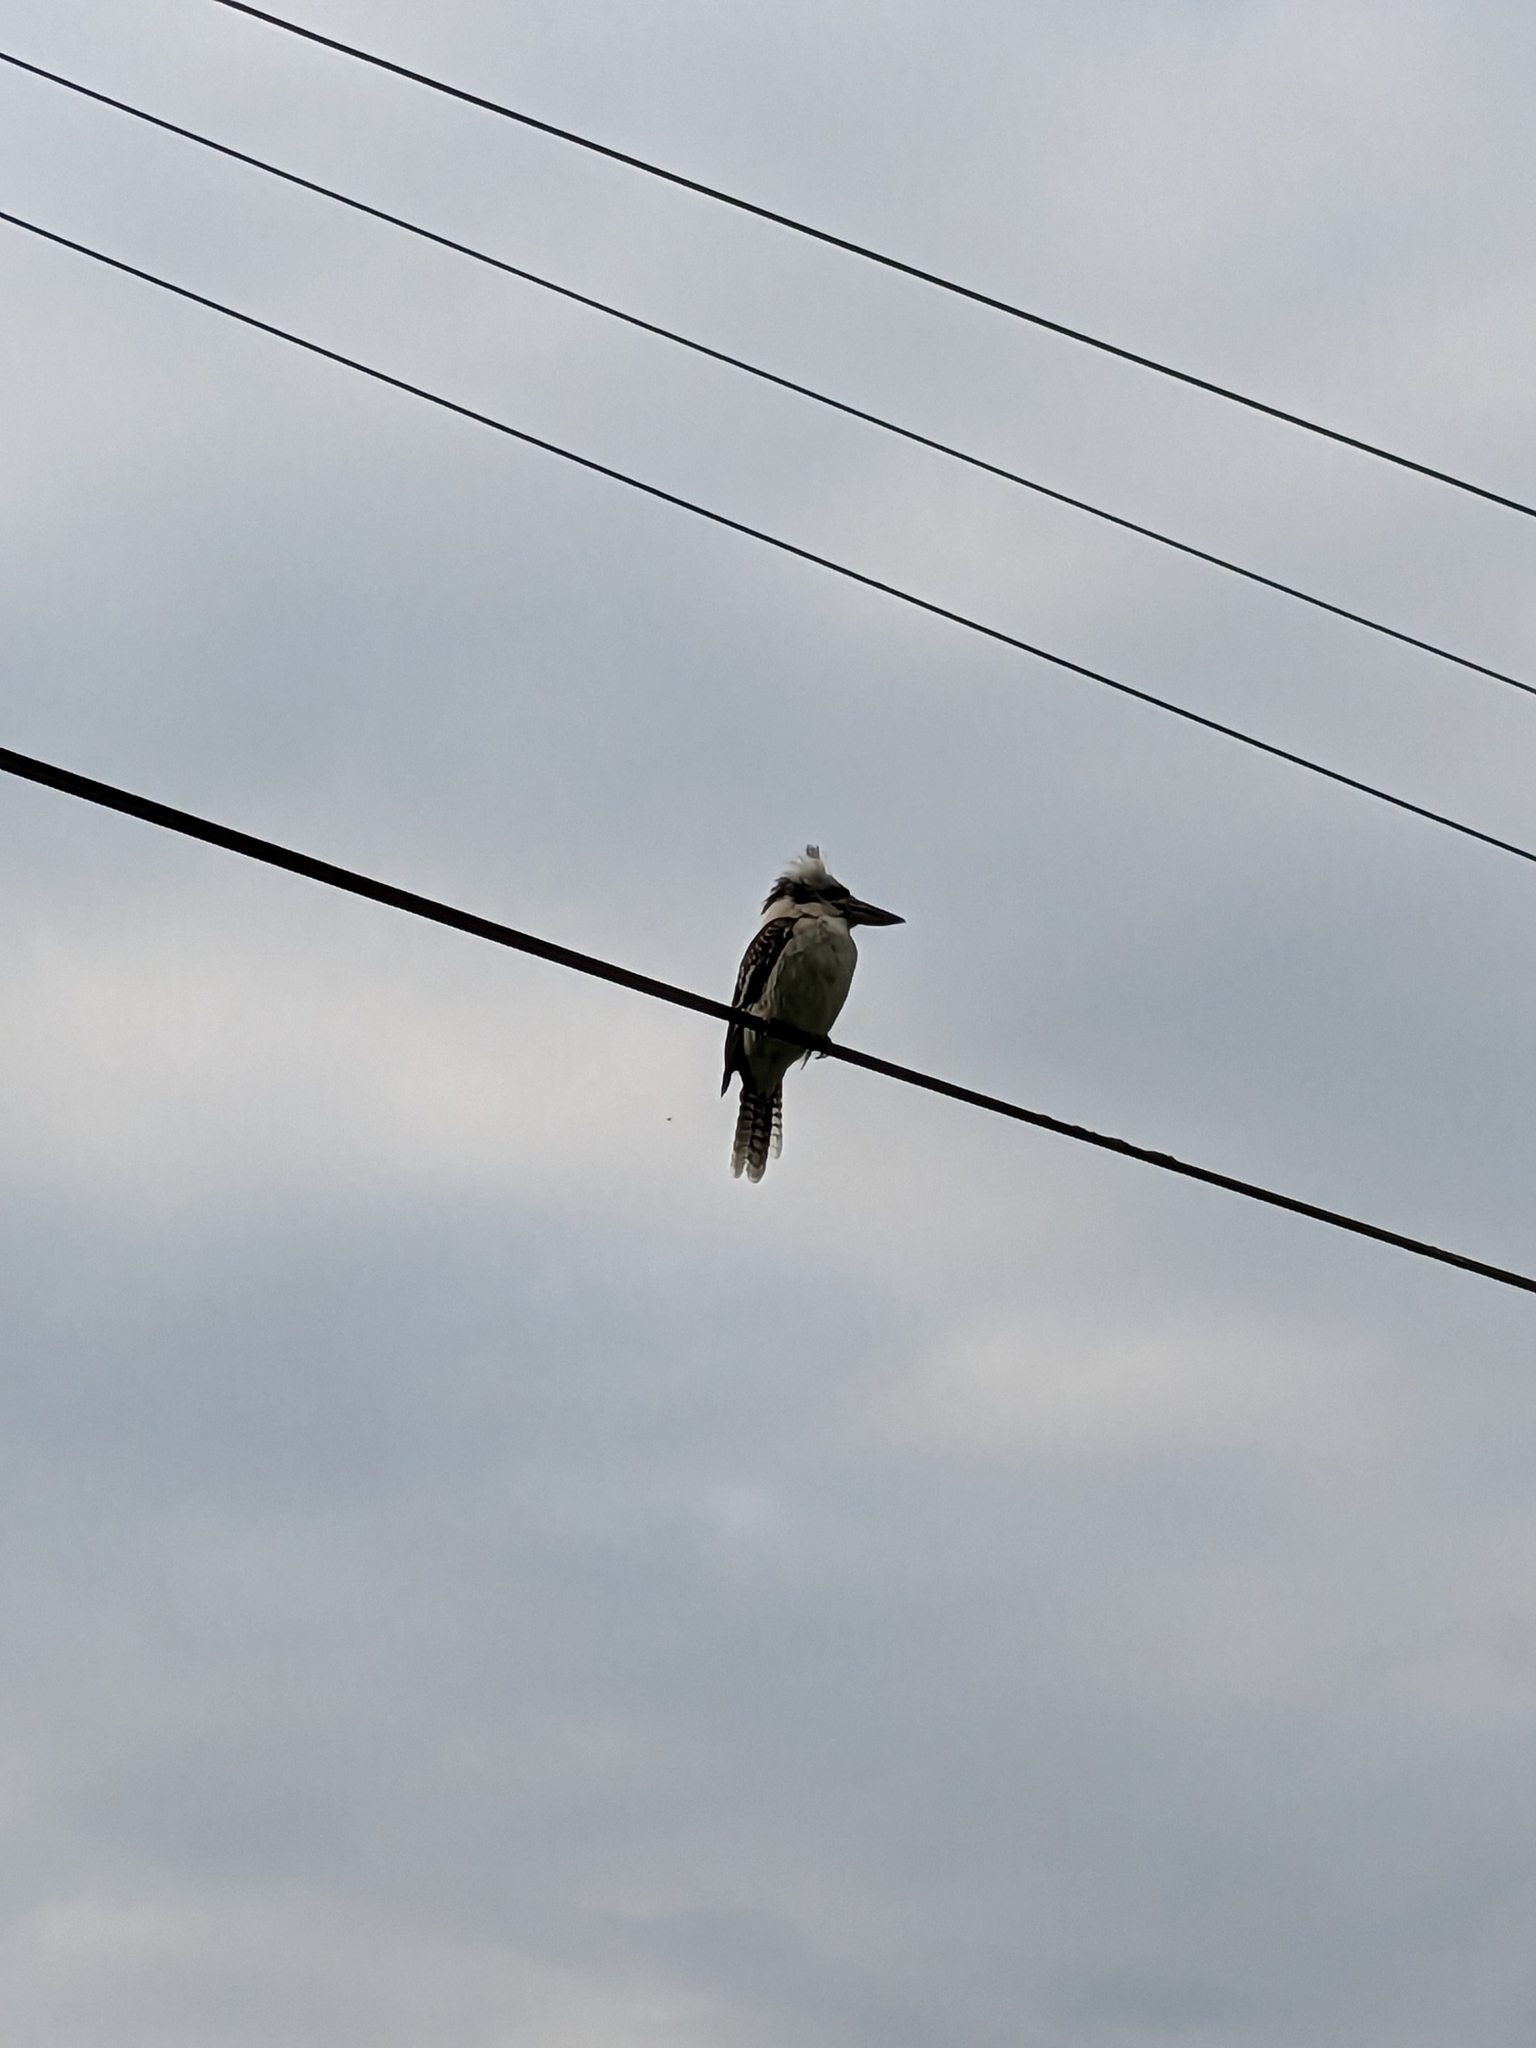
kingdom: Animalia
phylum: Chordata
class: Aves
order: Coraciiformes
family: Alcedinidae
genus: Dacelo
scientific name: Dacelo novaeguineae
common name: Laughing kookaburra
